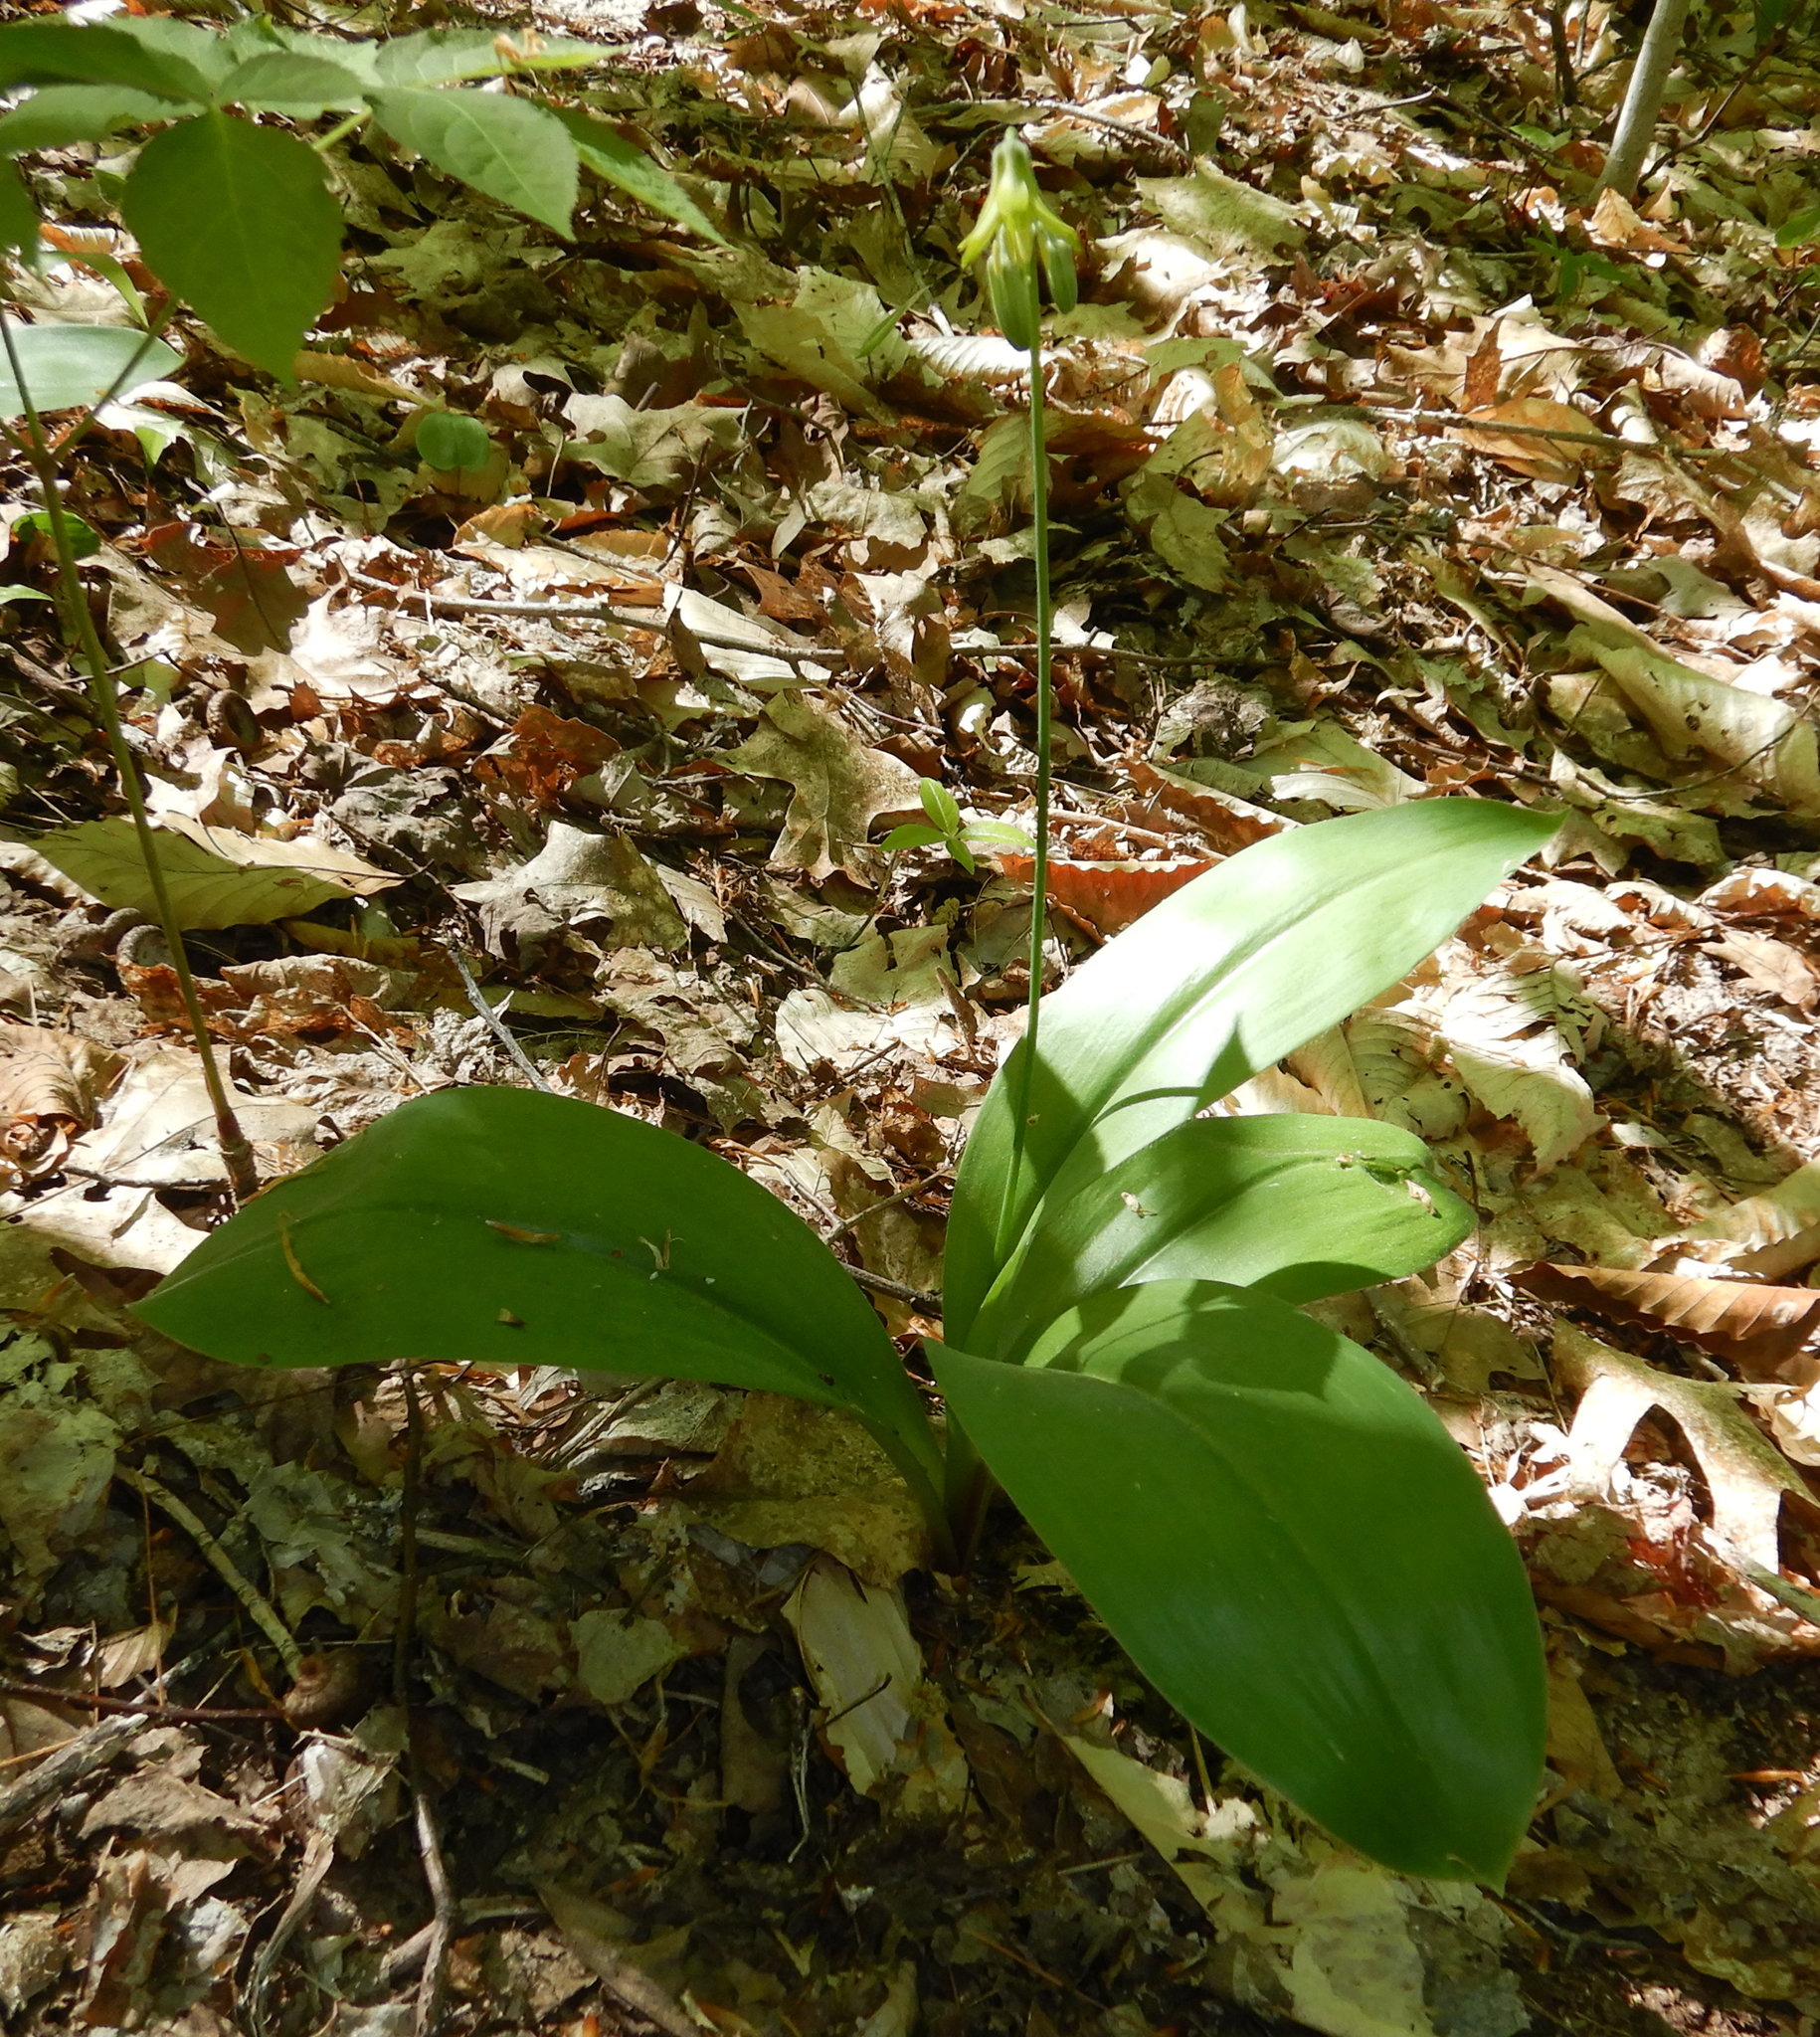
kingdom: Plantae
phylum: Tracheophyta
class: Liliopsida
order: Liliales
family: Liliaceae
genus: Clintonia
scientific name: Clintonia borealis
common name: Yellow clintonia
